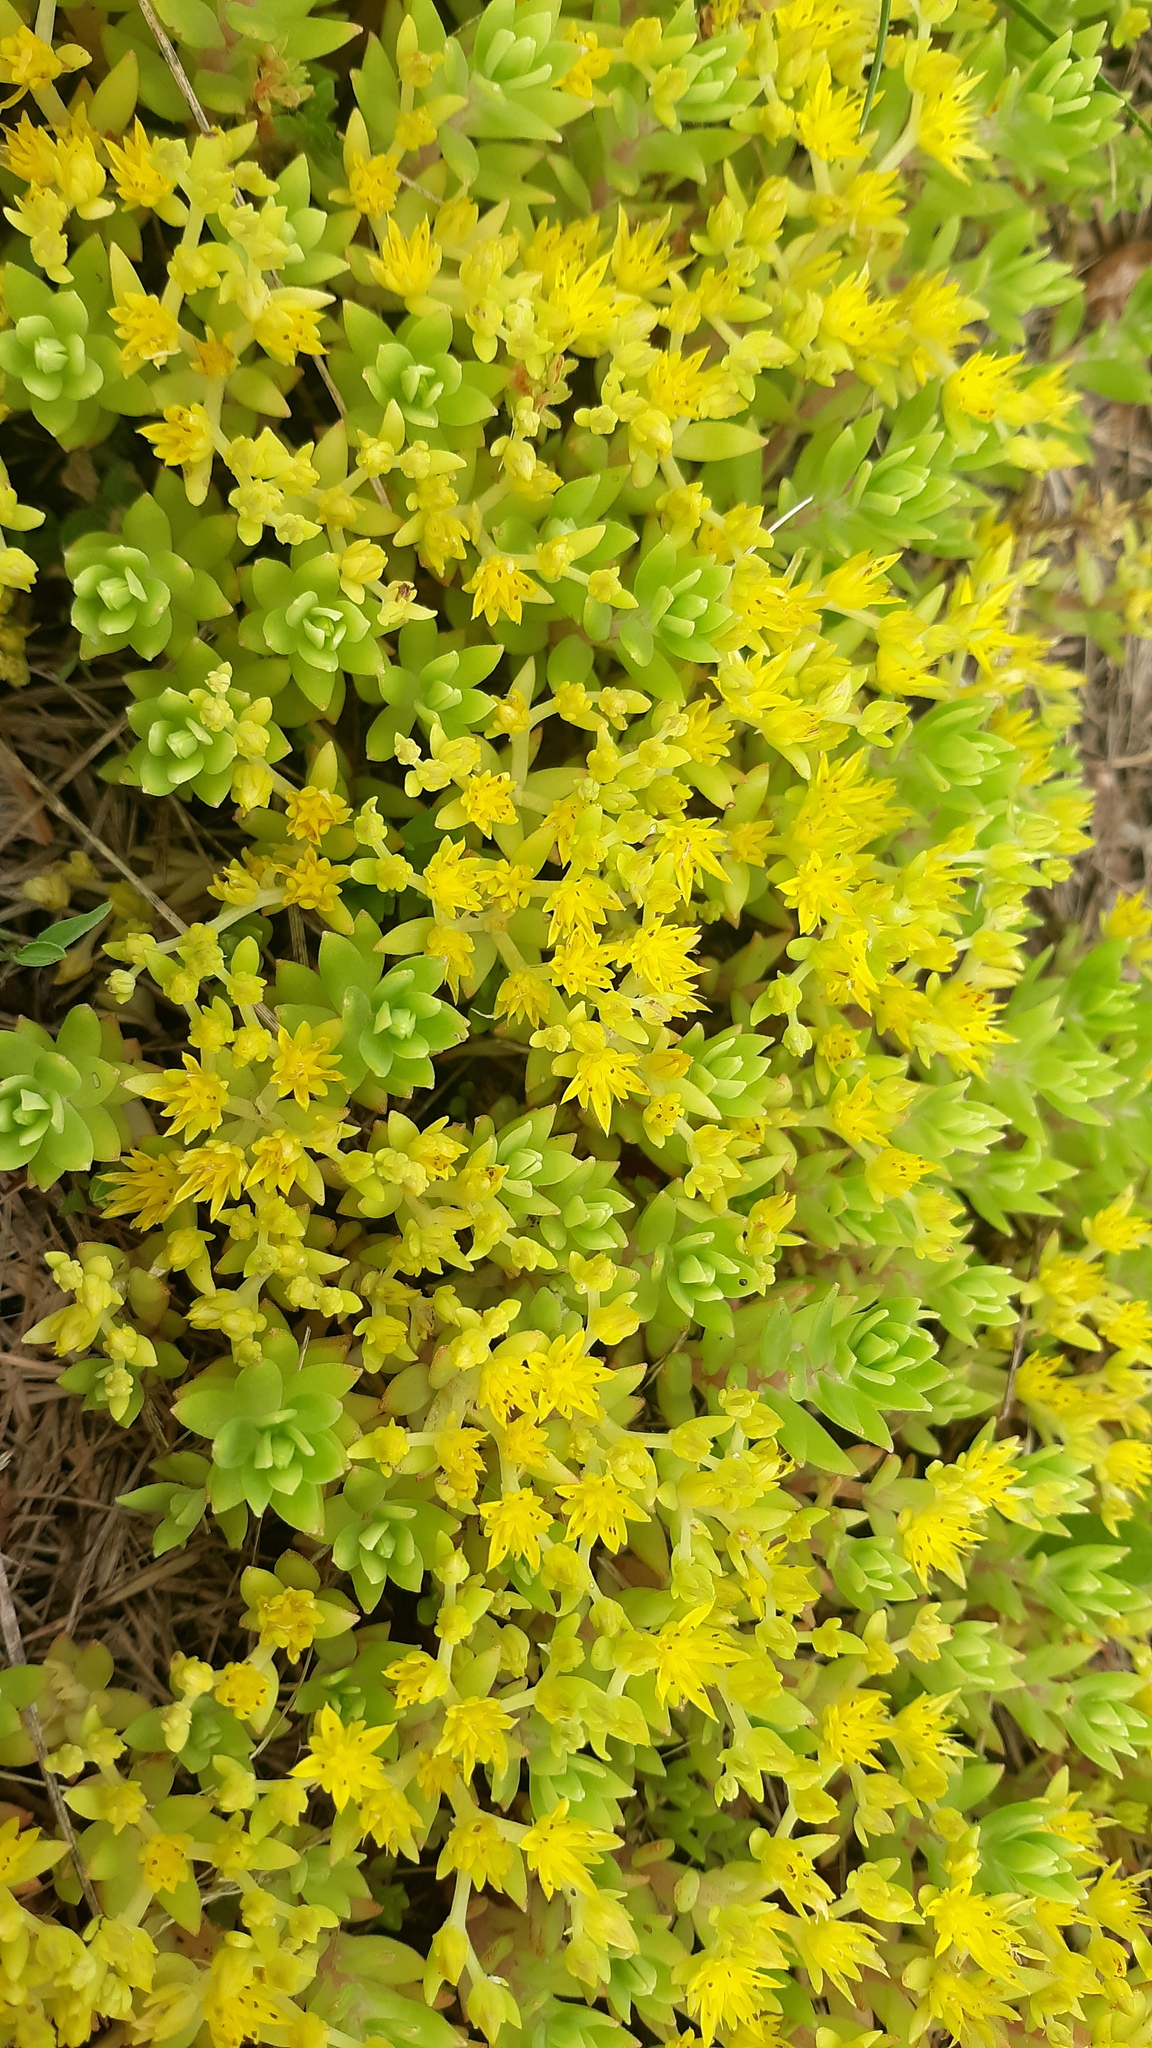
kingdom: Plantae
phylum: Tracheophyta
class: Magnoliopsida
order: Saxifragales
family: Crassulaceae
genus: Sedum
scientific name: Sedum sarmentosum
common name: Stringy stonecrop
